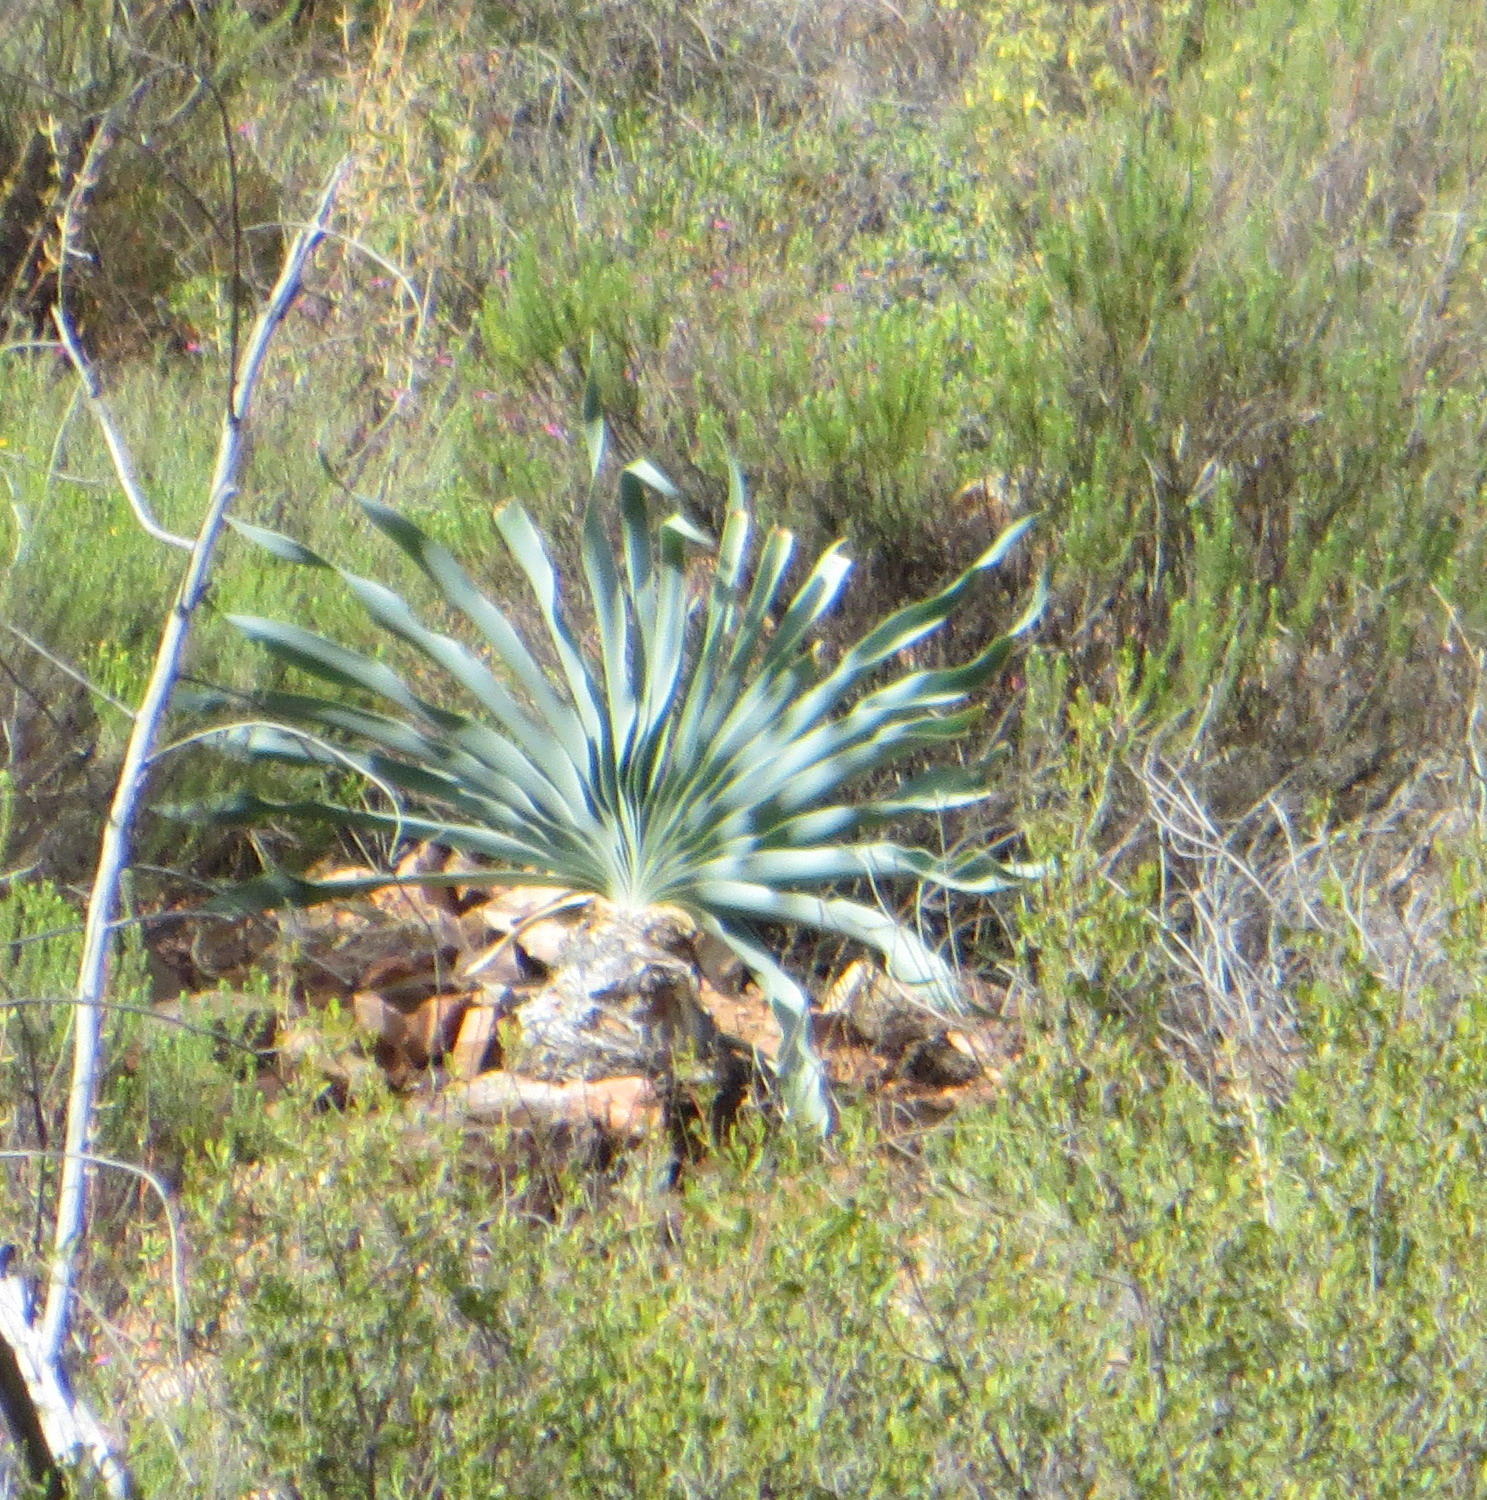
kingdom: Plantae
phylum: Tracheophyta
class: Liliopsida
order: Asparagales
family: Amaryllidaceae
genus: Boophone
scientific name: Boophone disticha
